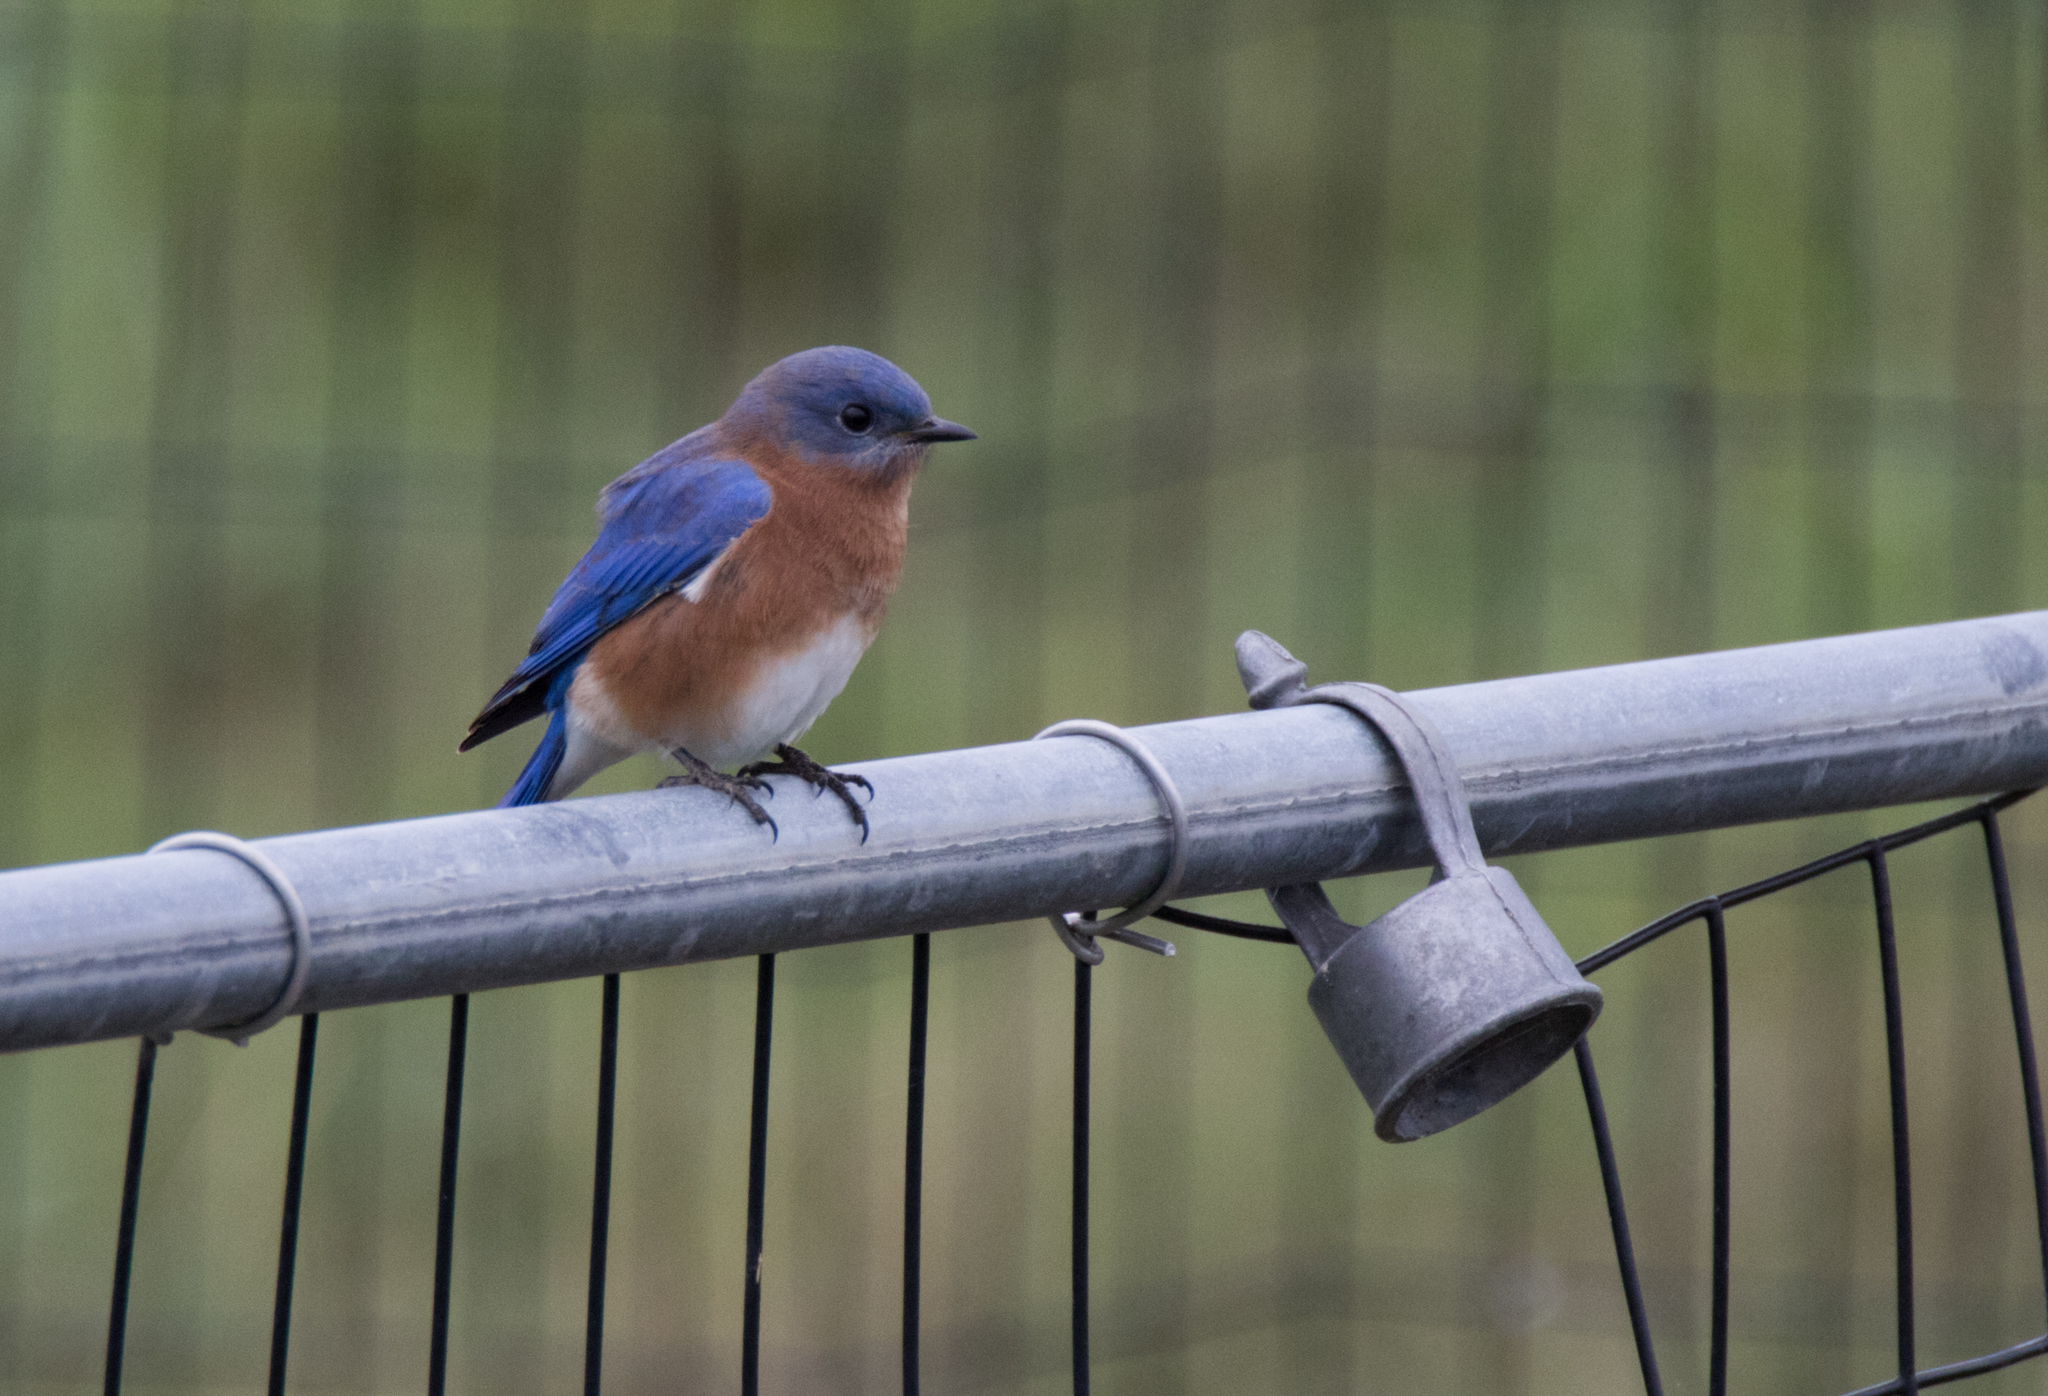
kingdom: Animalia
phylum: Chordata
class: Aves
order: Passeriformes
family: Turdidae
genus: Sialia
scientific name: Sialia sialis
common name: Eastern bluebird
